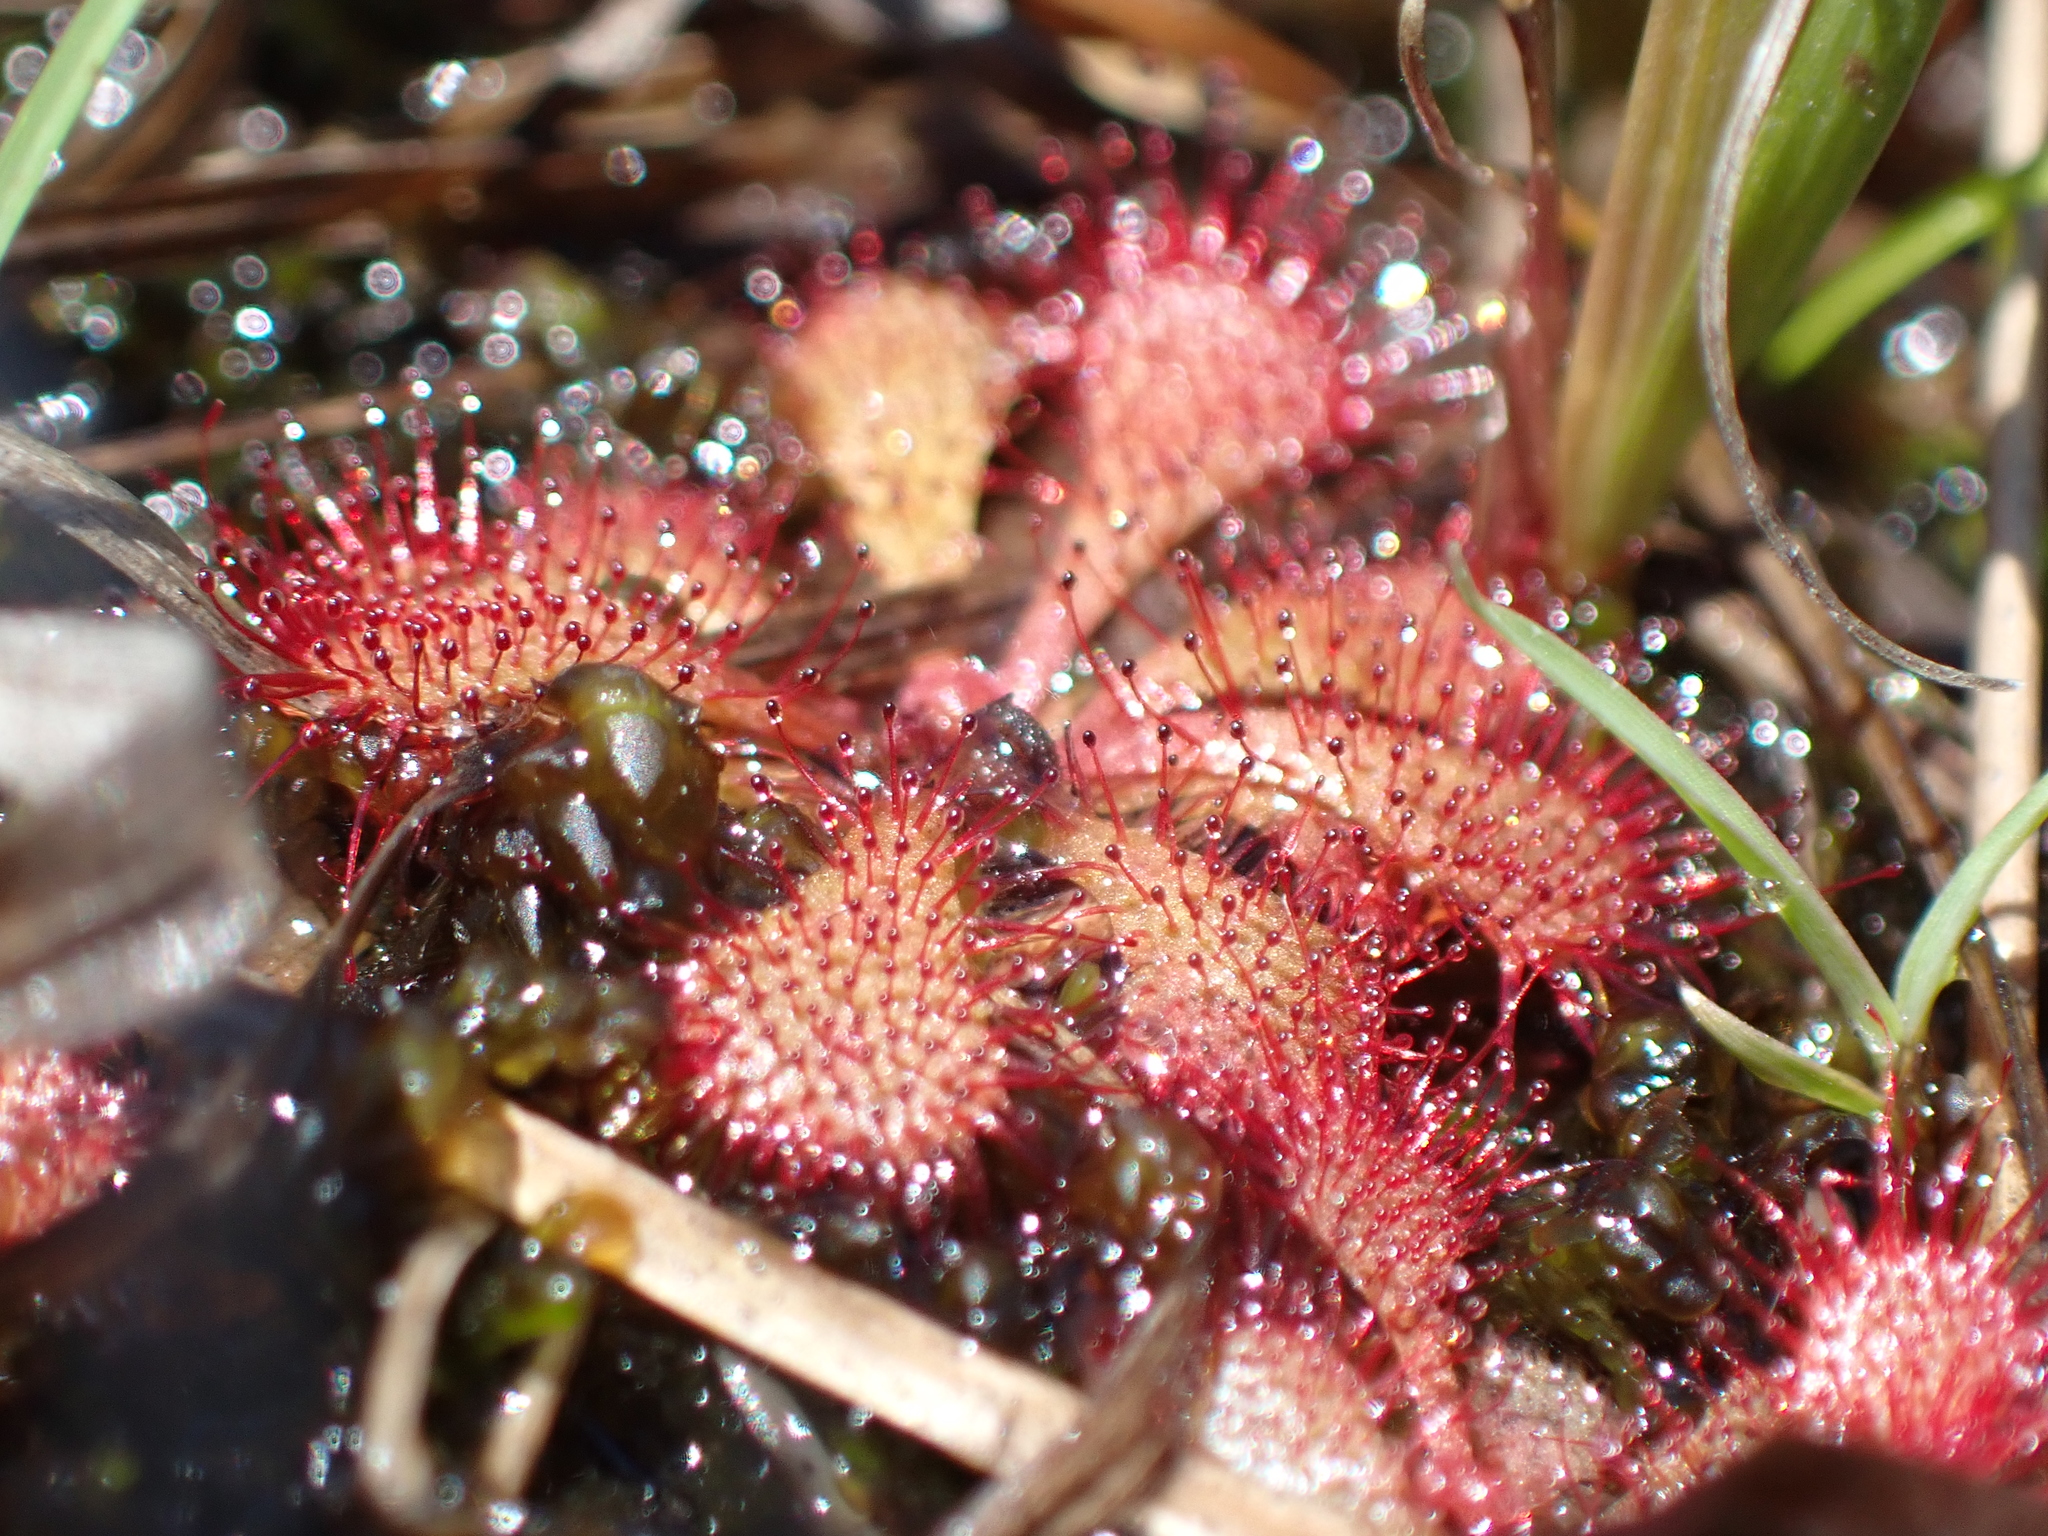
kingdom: Plantae
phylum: Tracheophyta
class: Magnoliopsida
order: Caryophyllales
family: Droseraceae
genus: Drosera
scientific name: Drosera brevifolia
